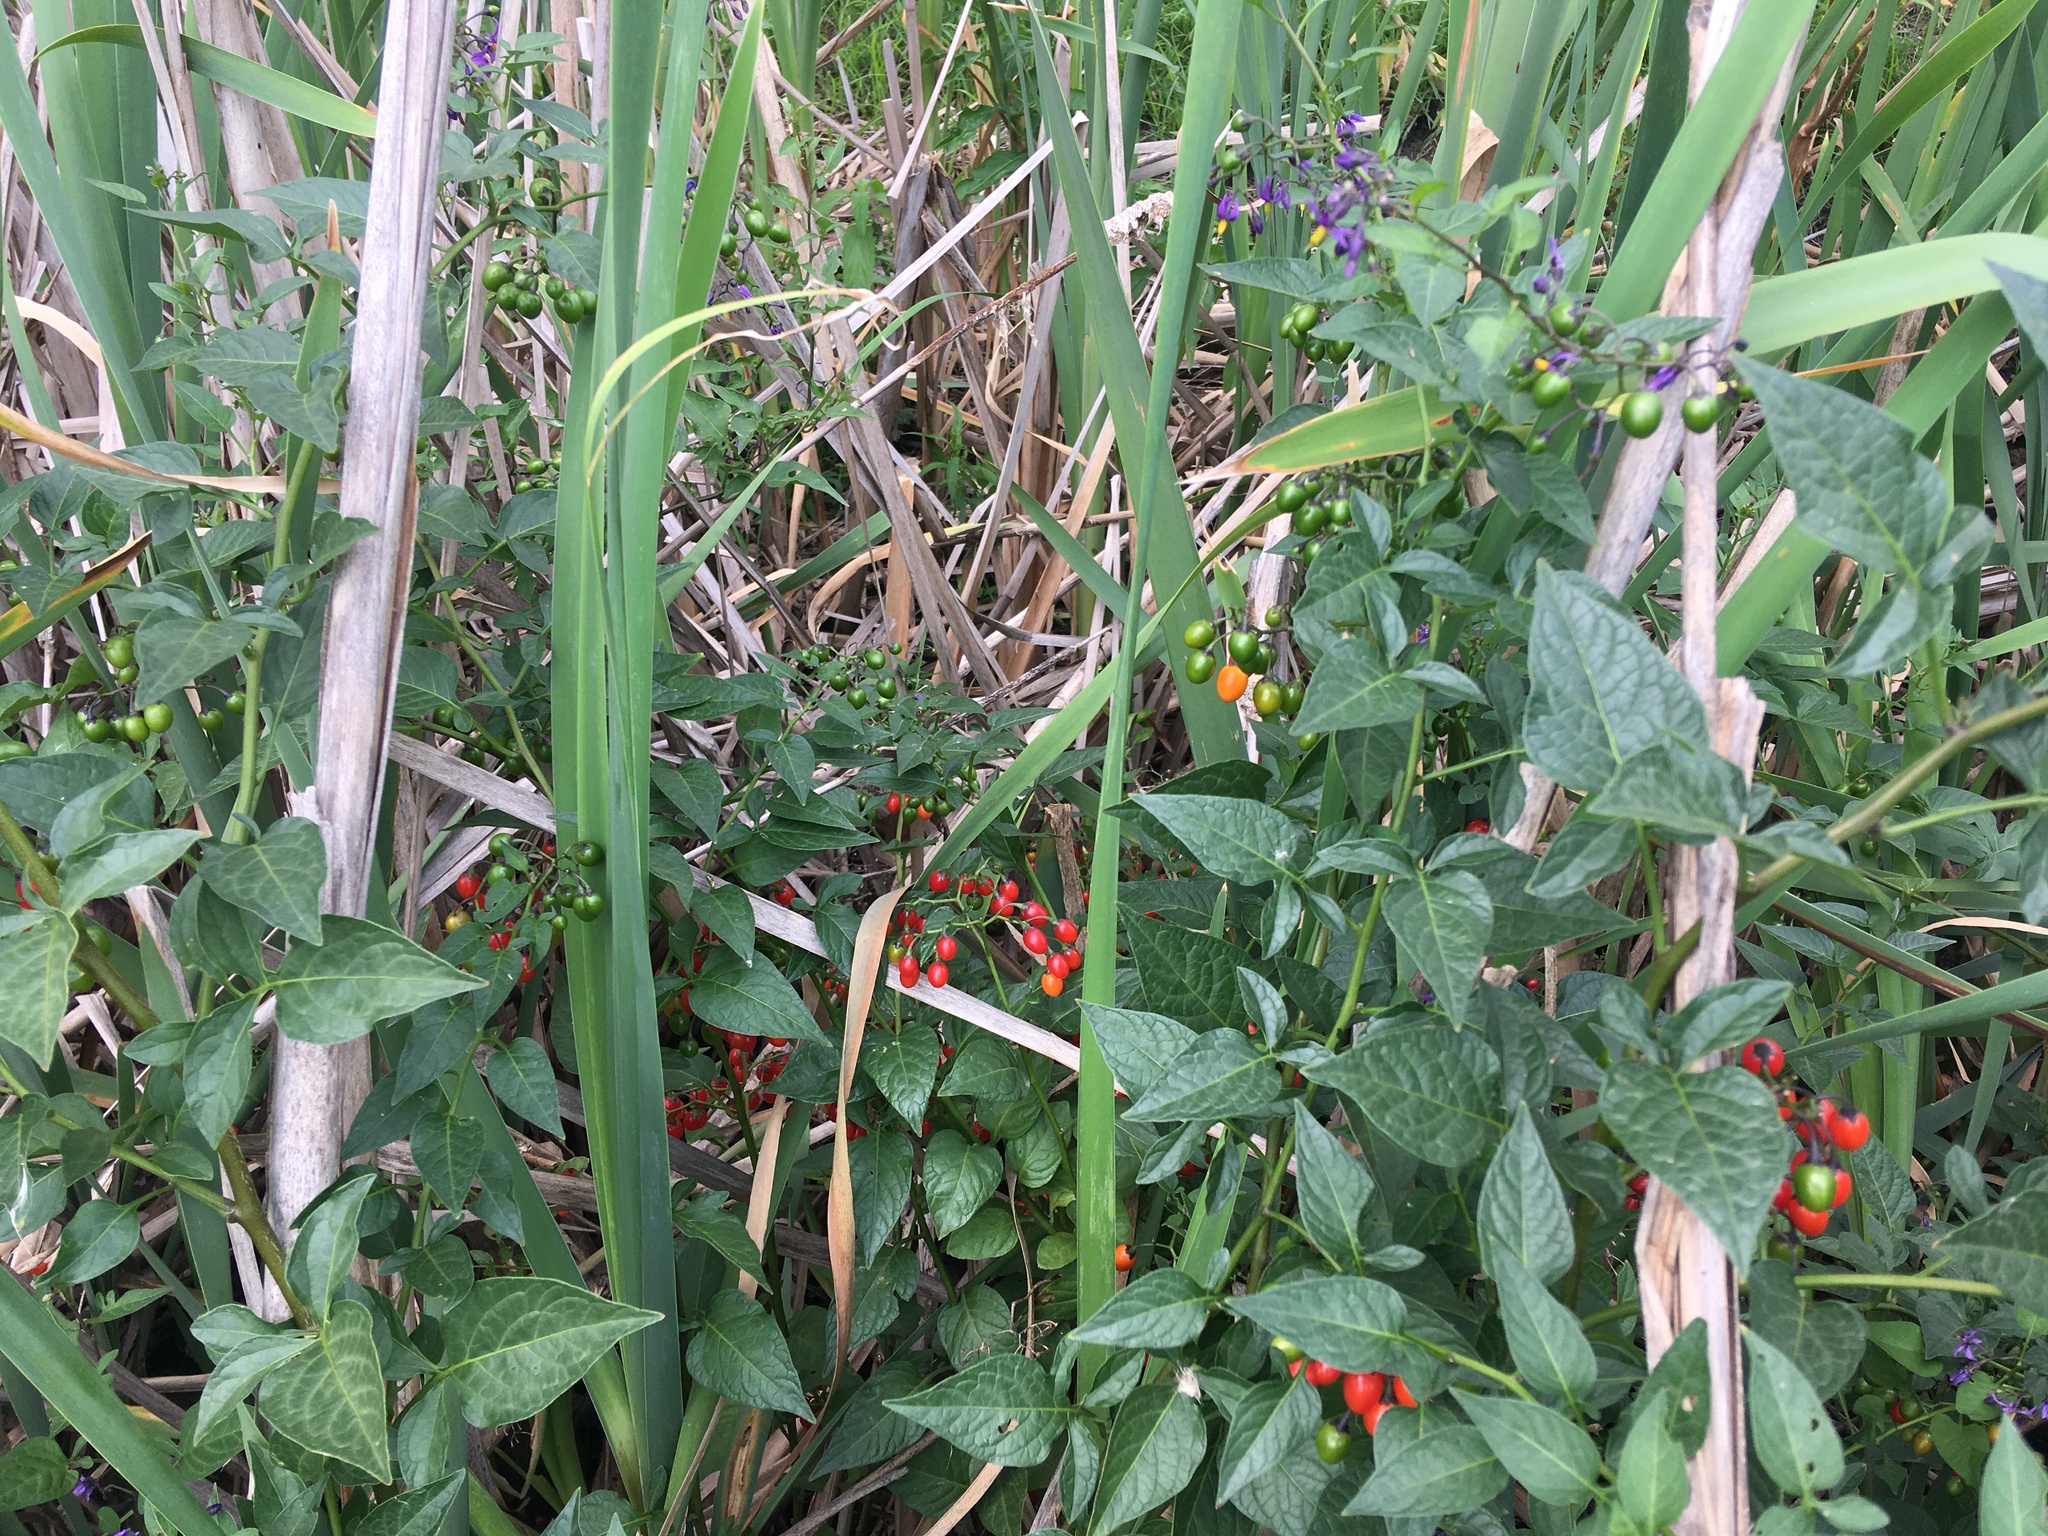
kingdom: Plantae
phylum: Tracheophyta
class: Magnoliopsida
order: Solanales
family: Solanaceae
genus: Solanum
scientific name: Solanum dulcamara
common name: Climbing nightshade
